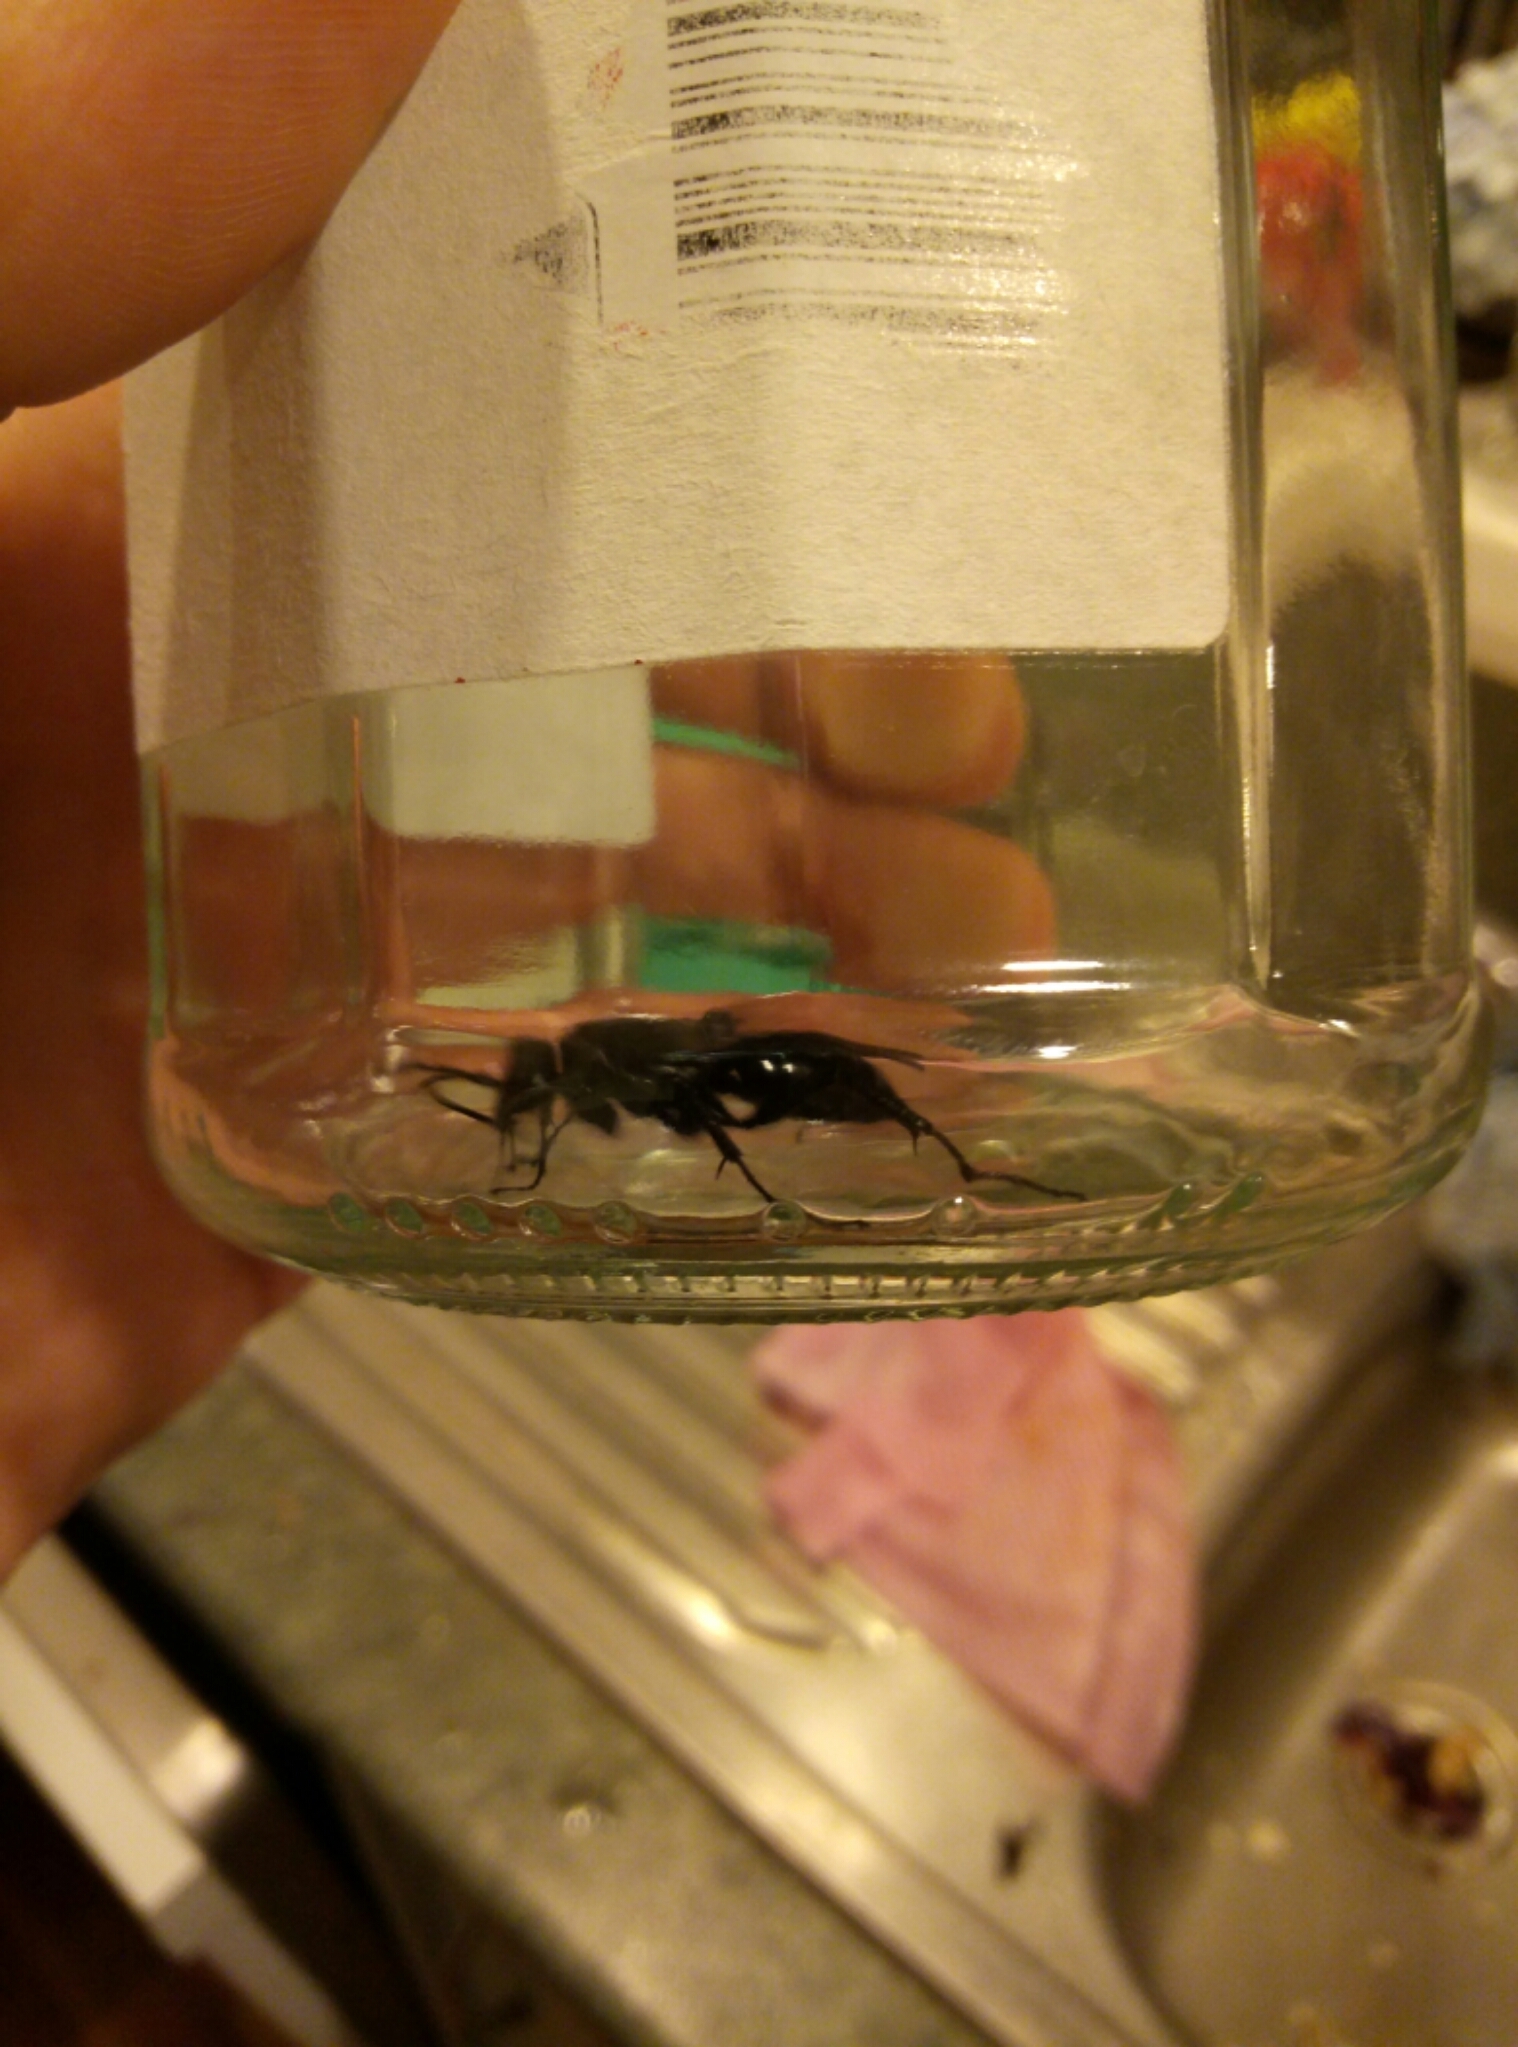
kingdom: Animalia
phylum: Arthropoda
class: Insecta
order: Hymenoptera
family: Pompilidae
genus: Priocnemis
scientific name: Priocnemis monachus
